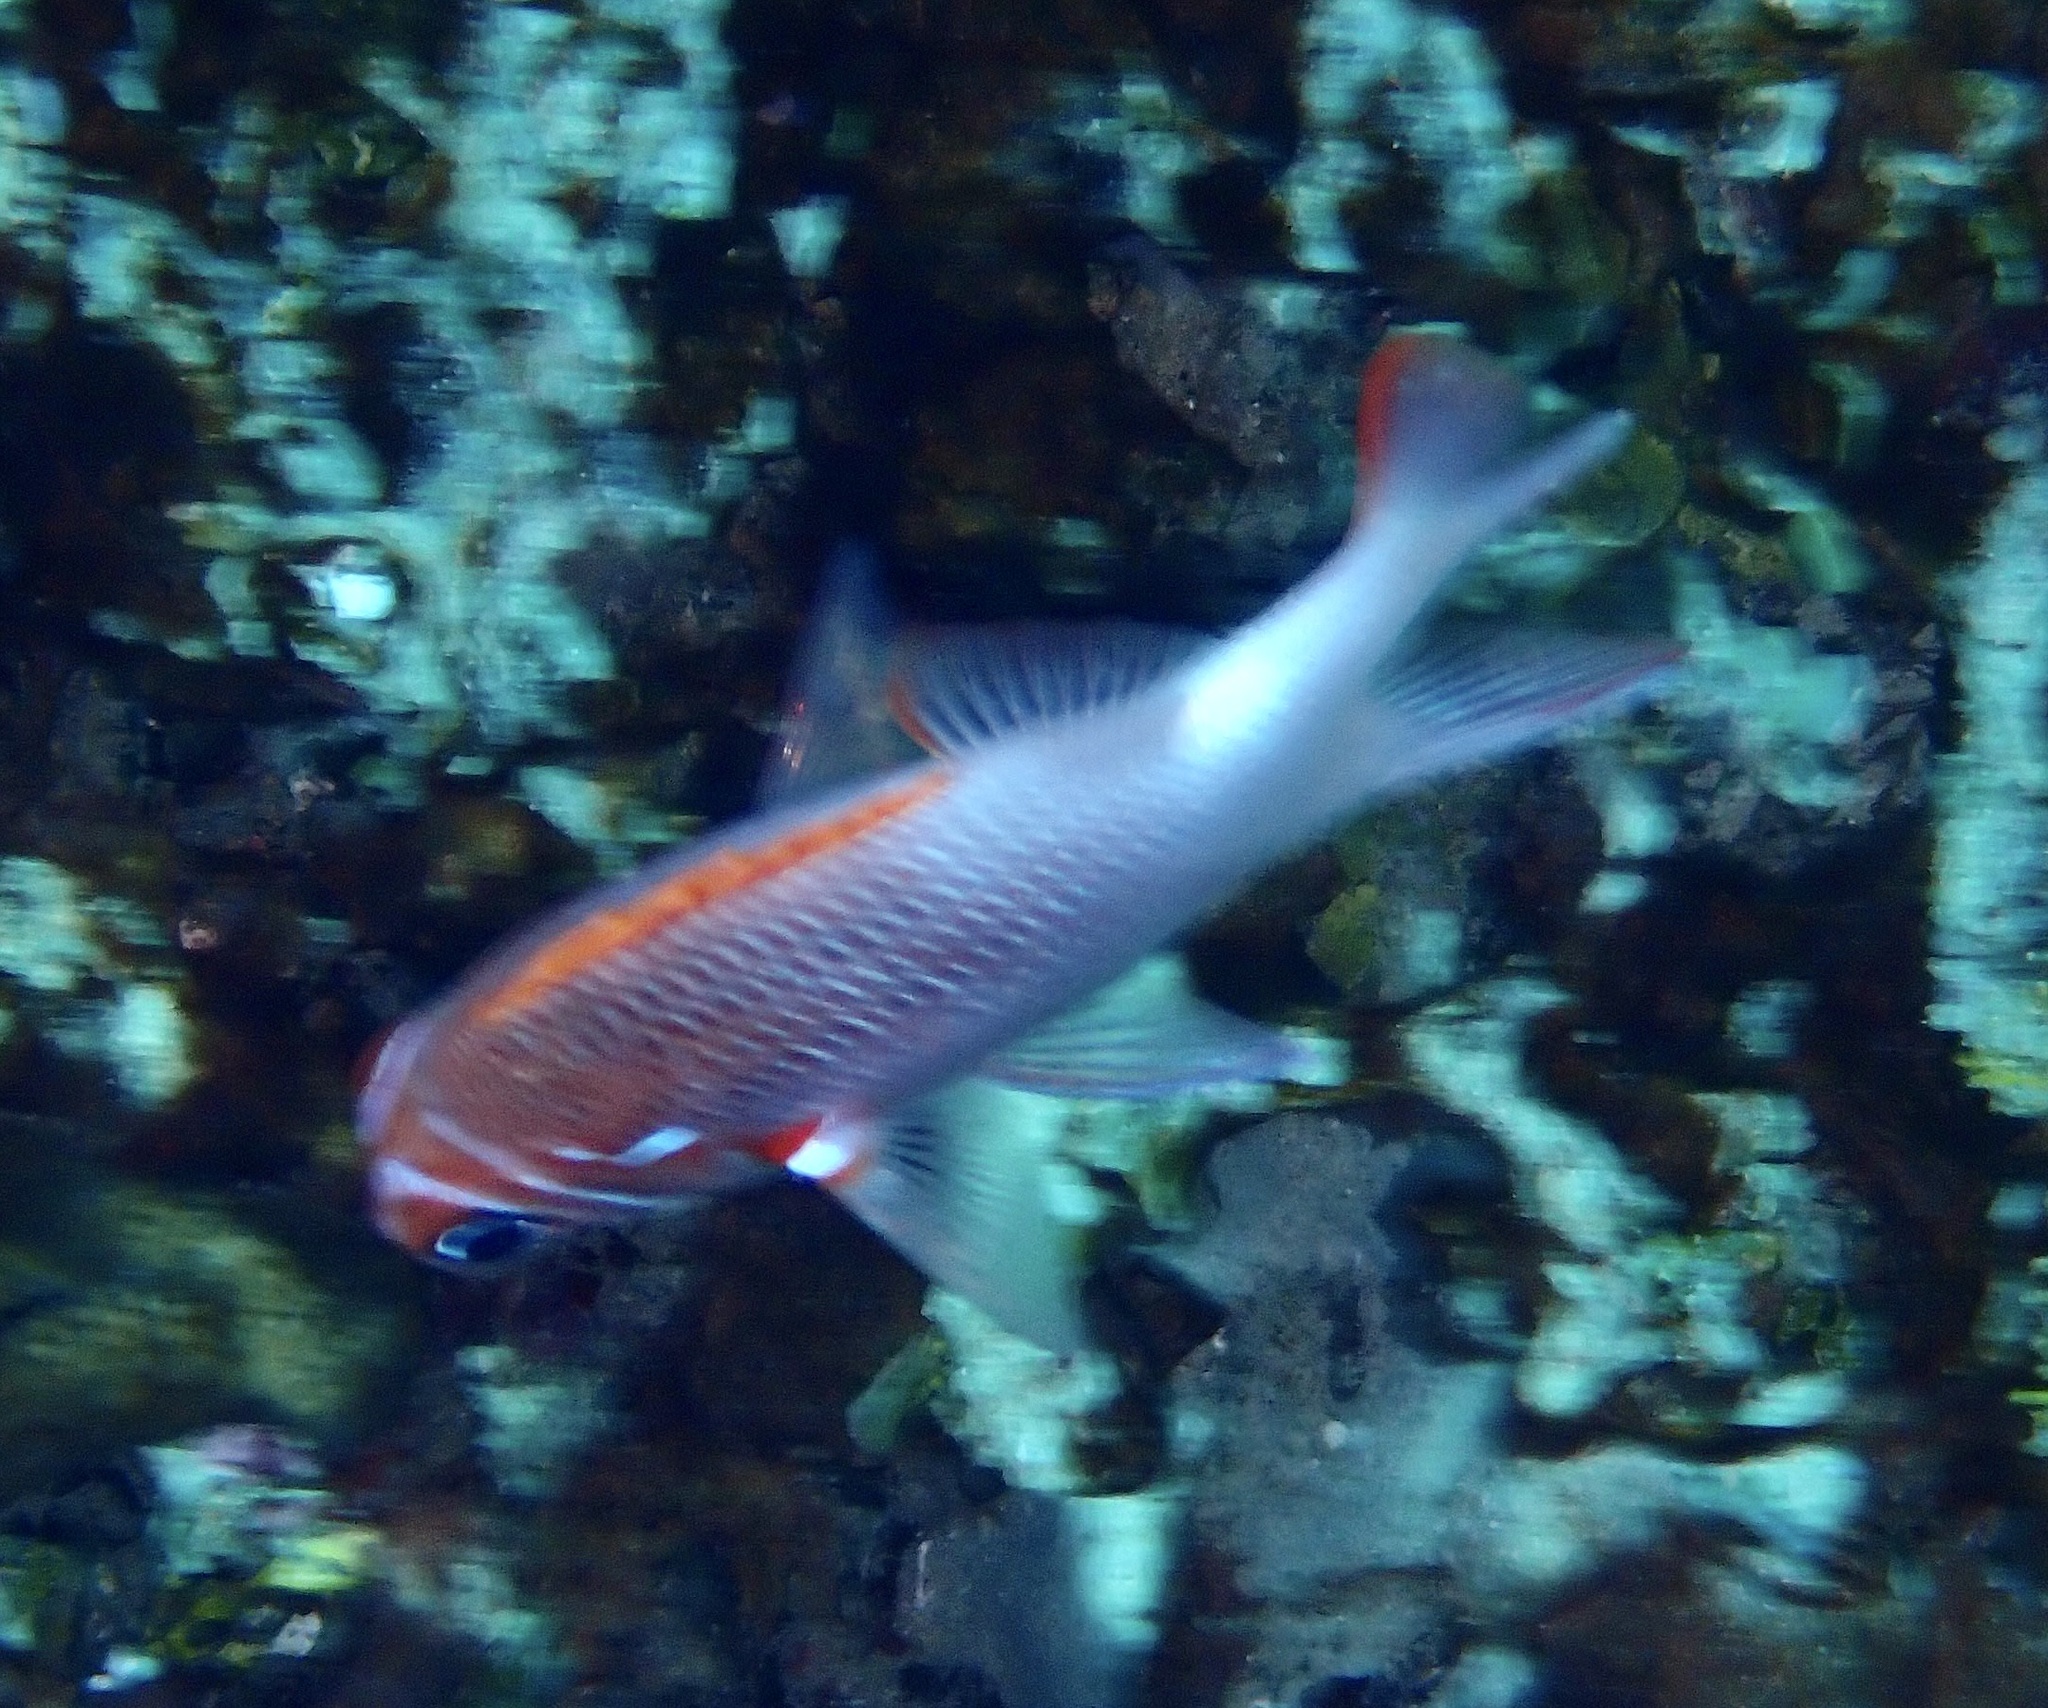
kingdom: Animalia
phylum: Chordata
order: Beryciformes
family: Holocentridae
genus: Sargocentron
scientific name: Sargocentron caudimaculatum
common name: Fanfin soldier
